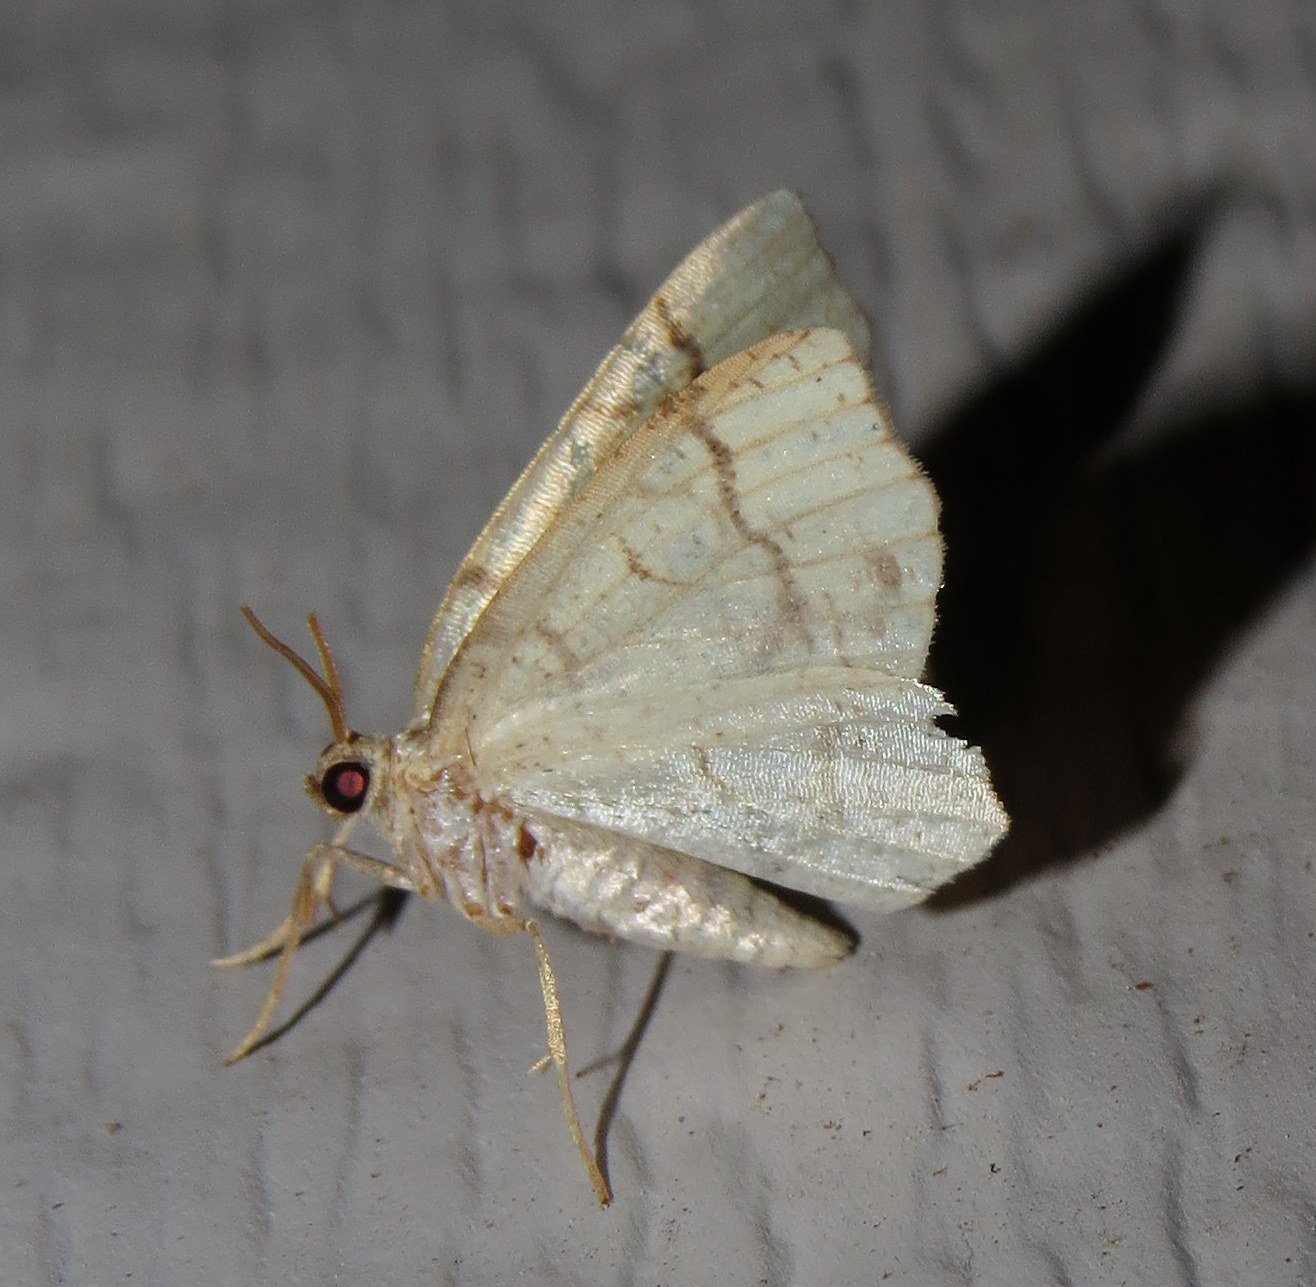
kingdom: Animalia
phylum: Arthropoda
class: Insecta
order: Lepidoptera
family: Geometridae
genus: Nematocampa
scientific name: Nematocampa resistaria
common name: Horned spanworm moth
